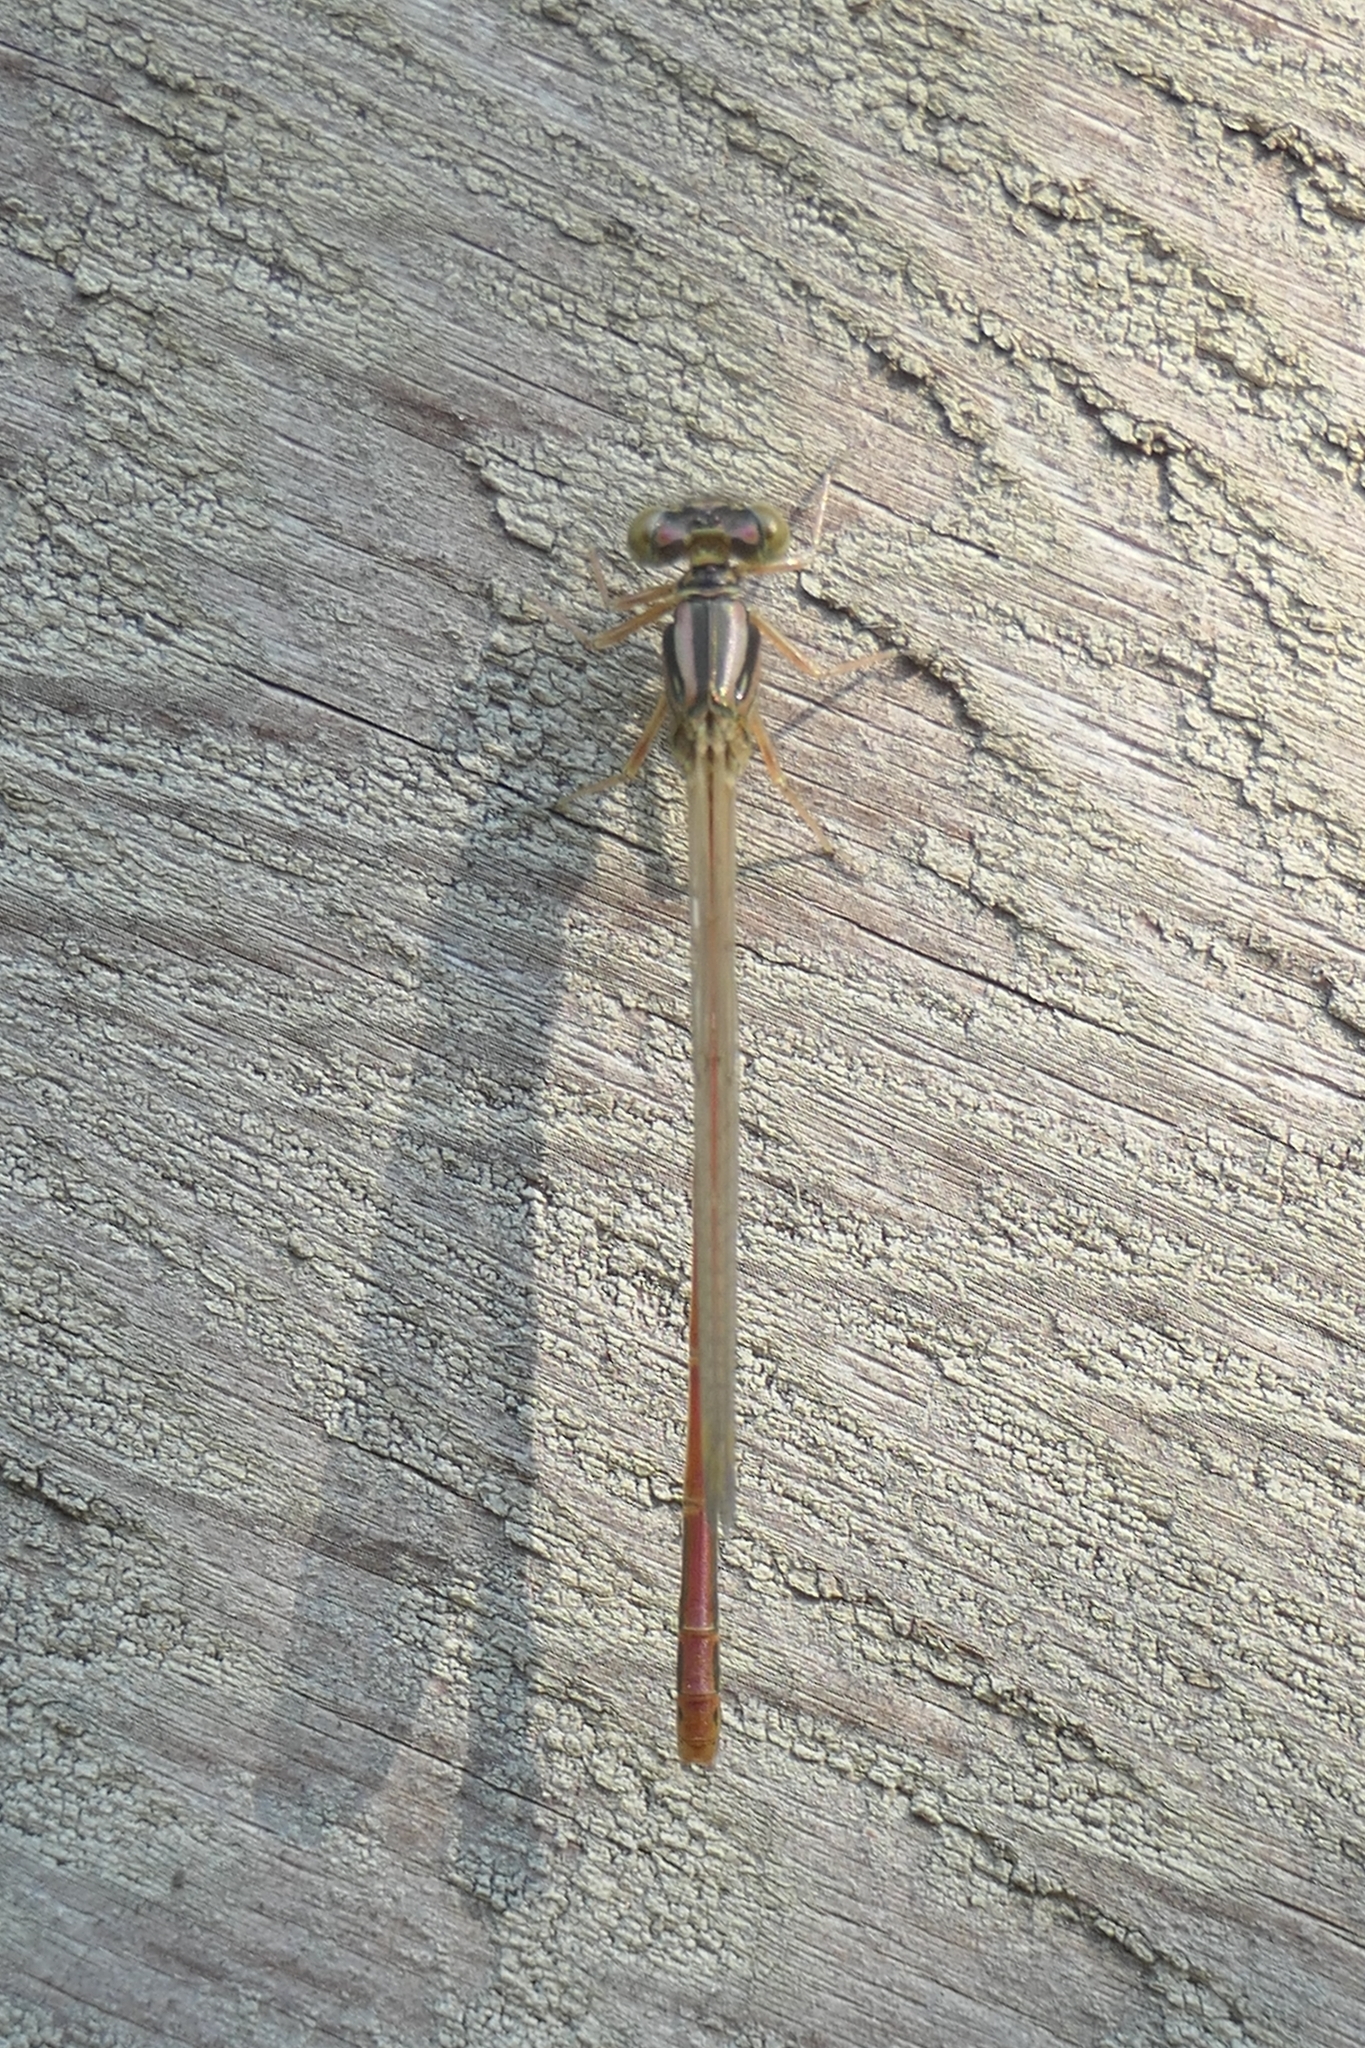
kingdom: Animalia
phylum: Arthropoda
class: Insecta
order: Odonata
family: Coenagrionidae
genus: Xanthocnemis
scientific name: Xanthocnemis zealandica
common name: Common redcoat damselfly
